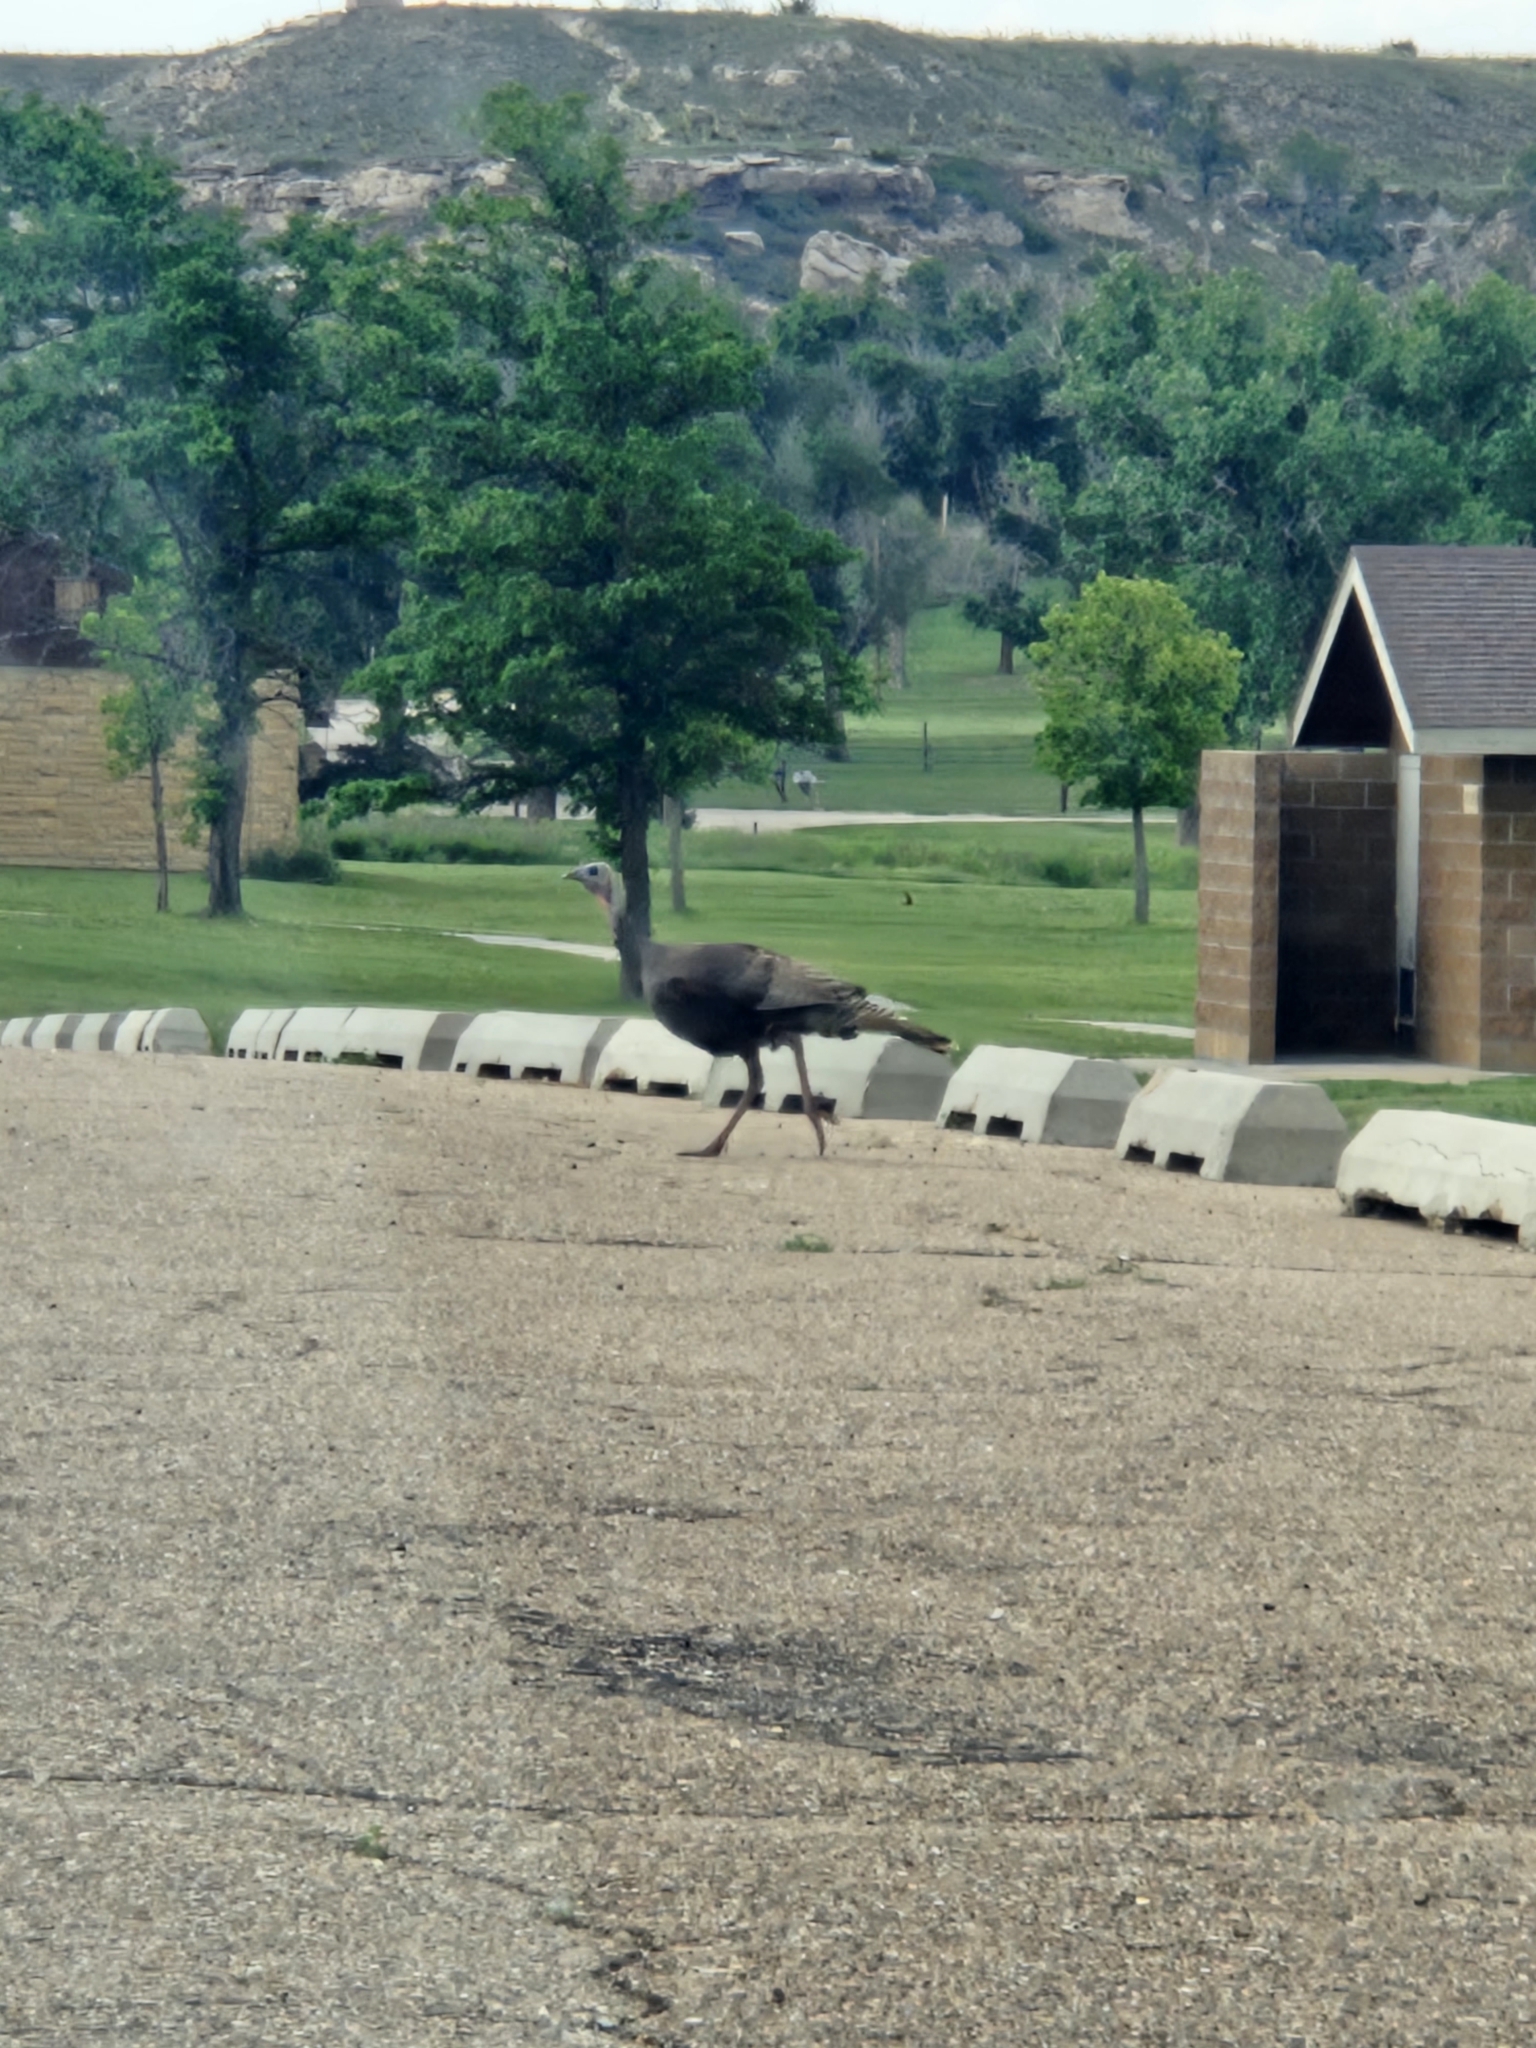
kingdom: Animalia
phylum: Chordata
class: Aves
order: Galliformes
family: Phasianidae
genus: Meleagris
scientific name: Meleagris gallopavo
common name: Wild turkey
